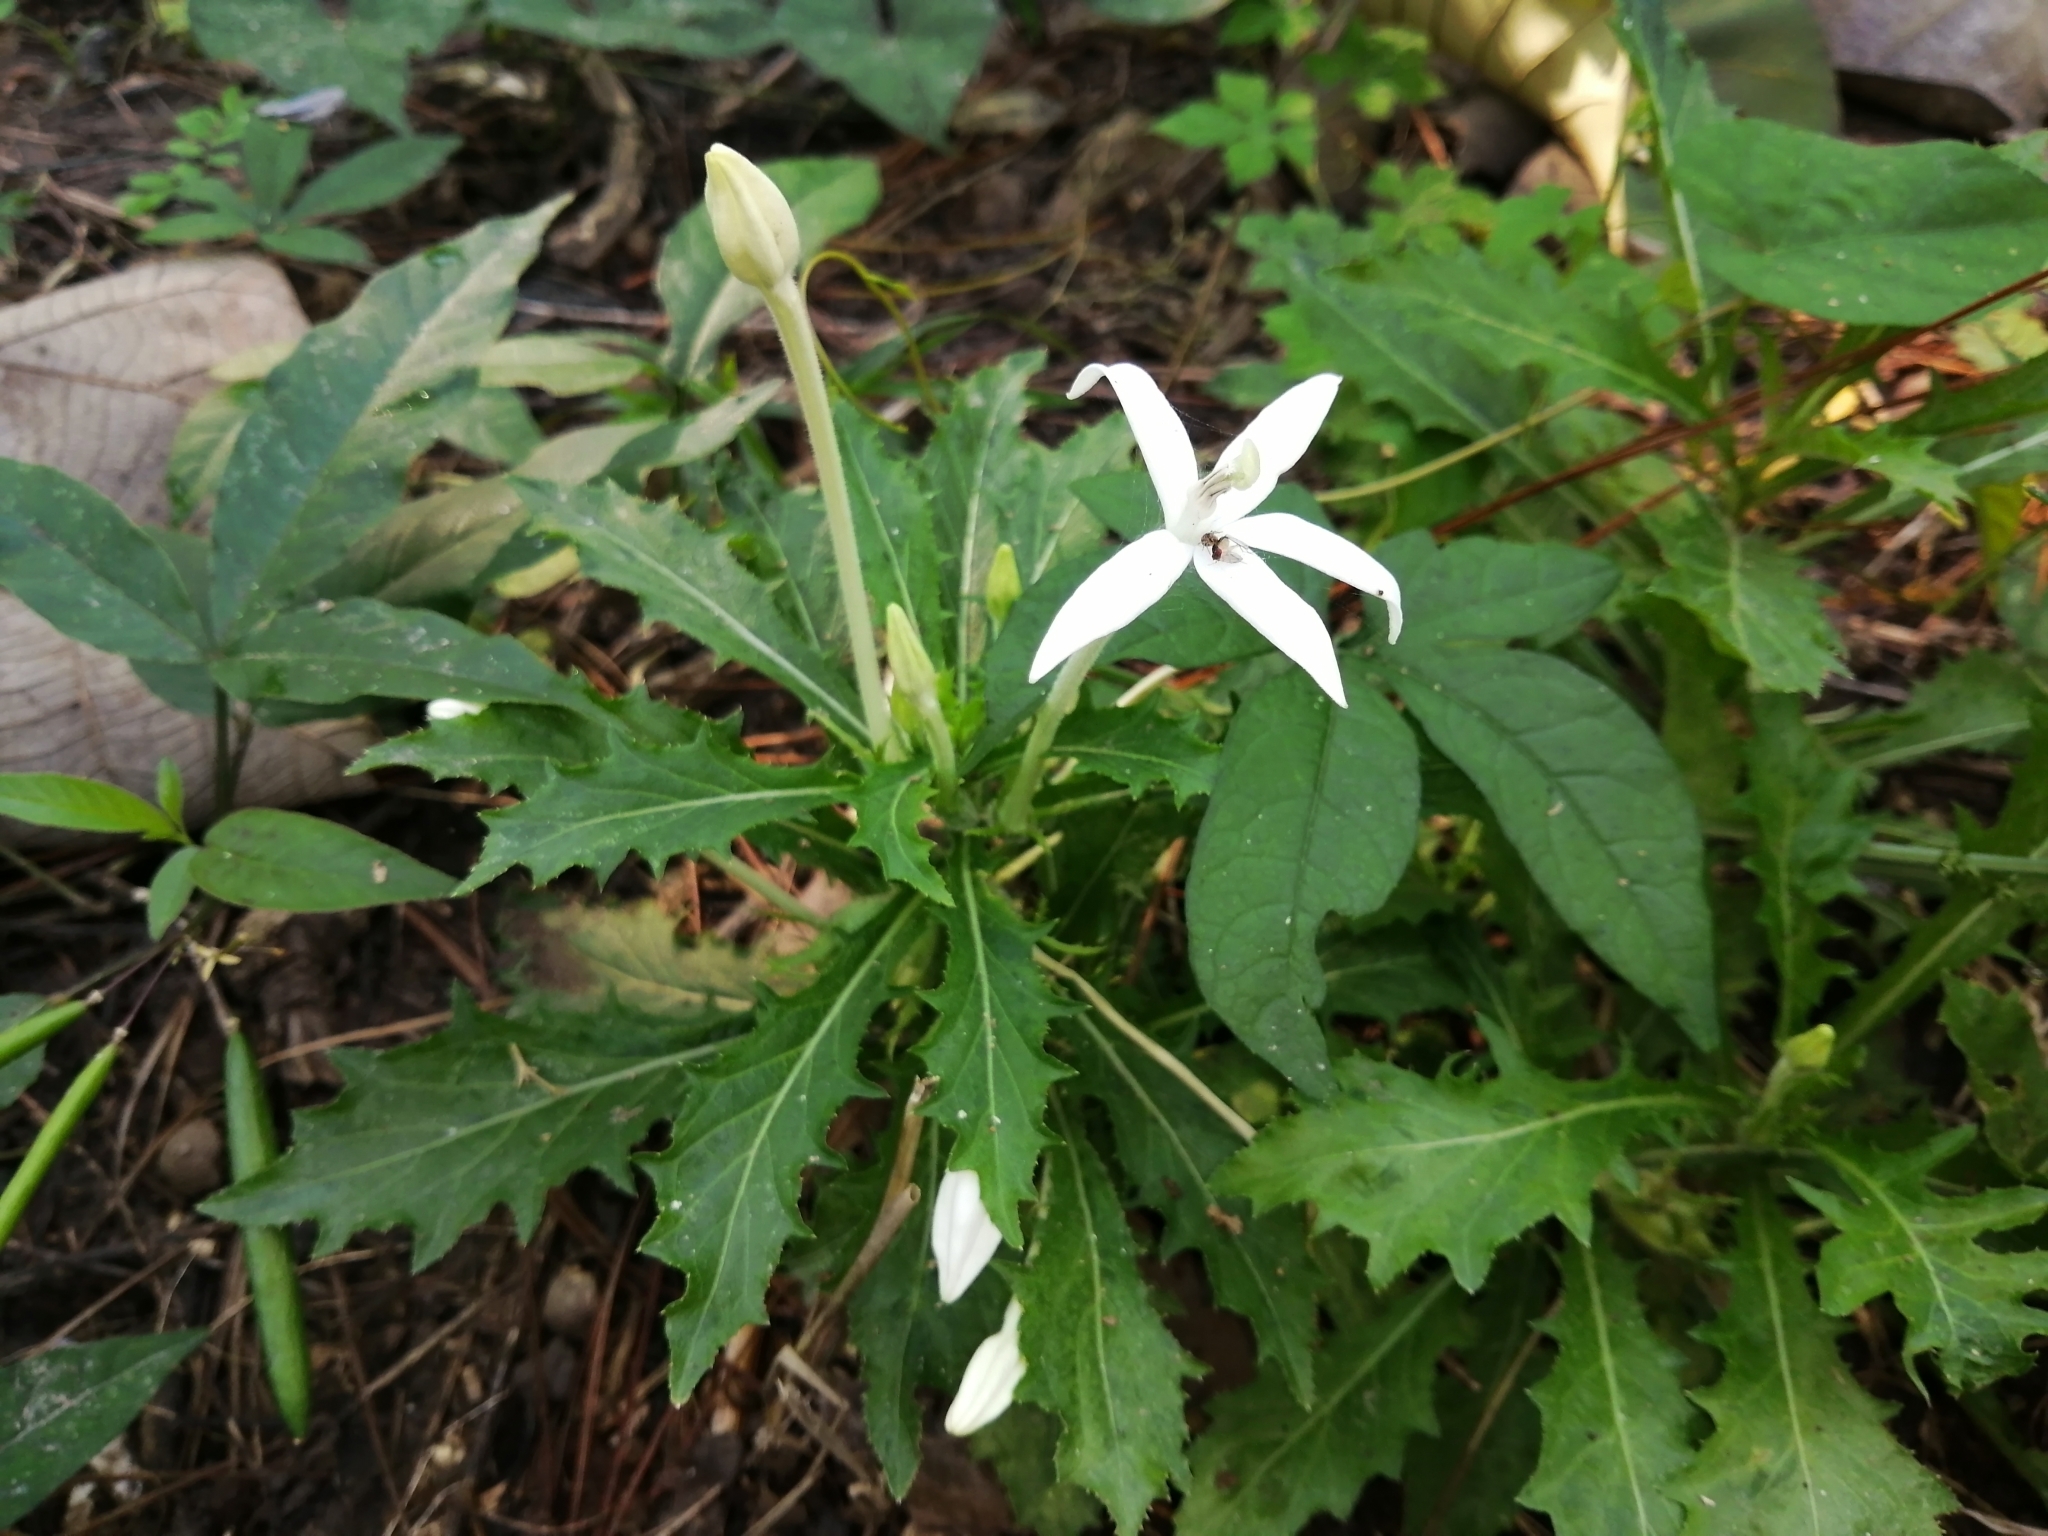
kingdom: Plantae
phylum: Tracheophyta
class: Magnoliopsida
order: Asterales
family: Campanulaceae
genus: Hippobroma
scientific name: Hippobroma longiflora
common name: Madamfate
